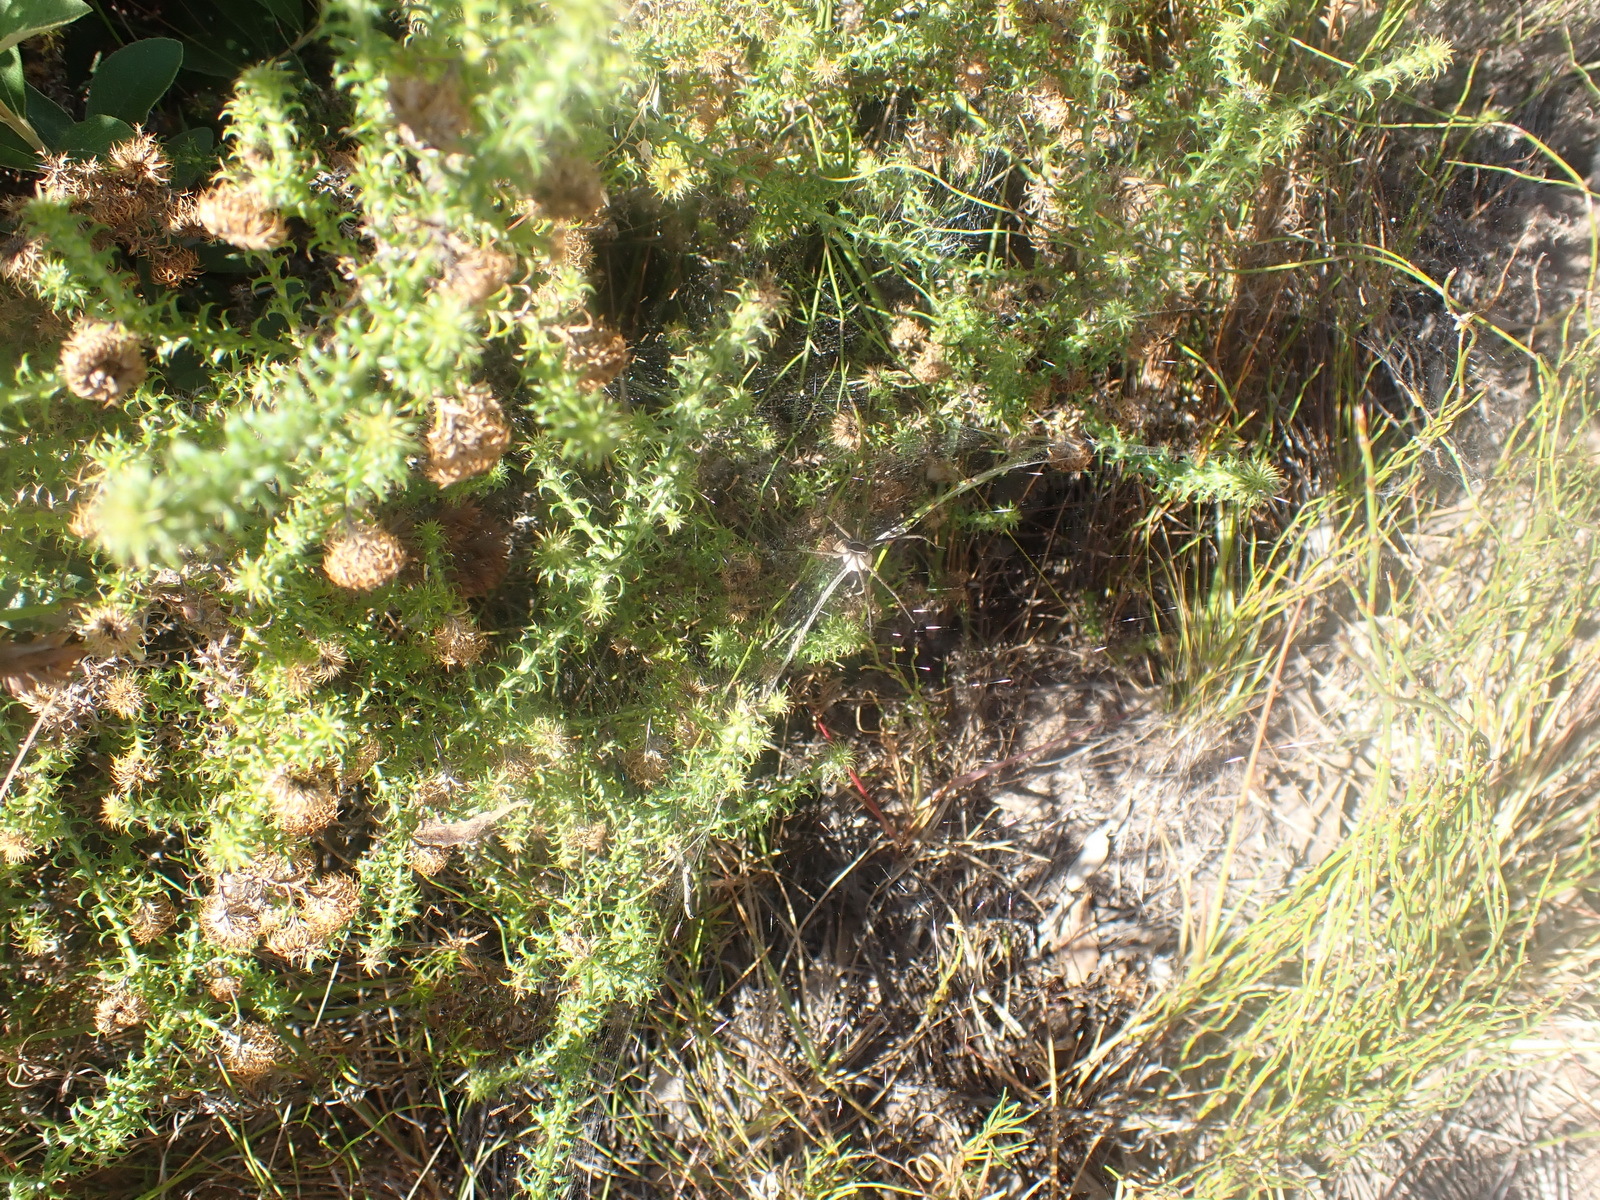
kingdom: Plantae
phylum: Tracheophyta
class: Magnoliopsida
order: Asterales
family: Asteraceae
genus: Cullumia
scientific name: Cullumia decurrens
